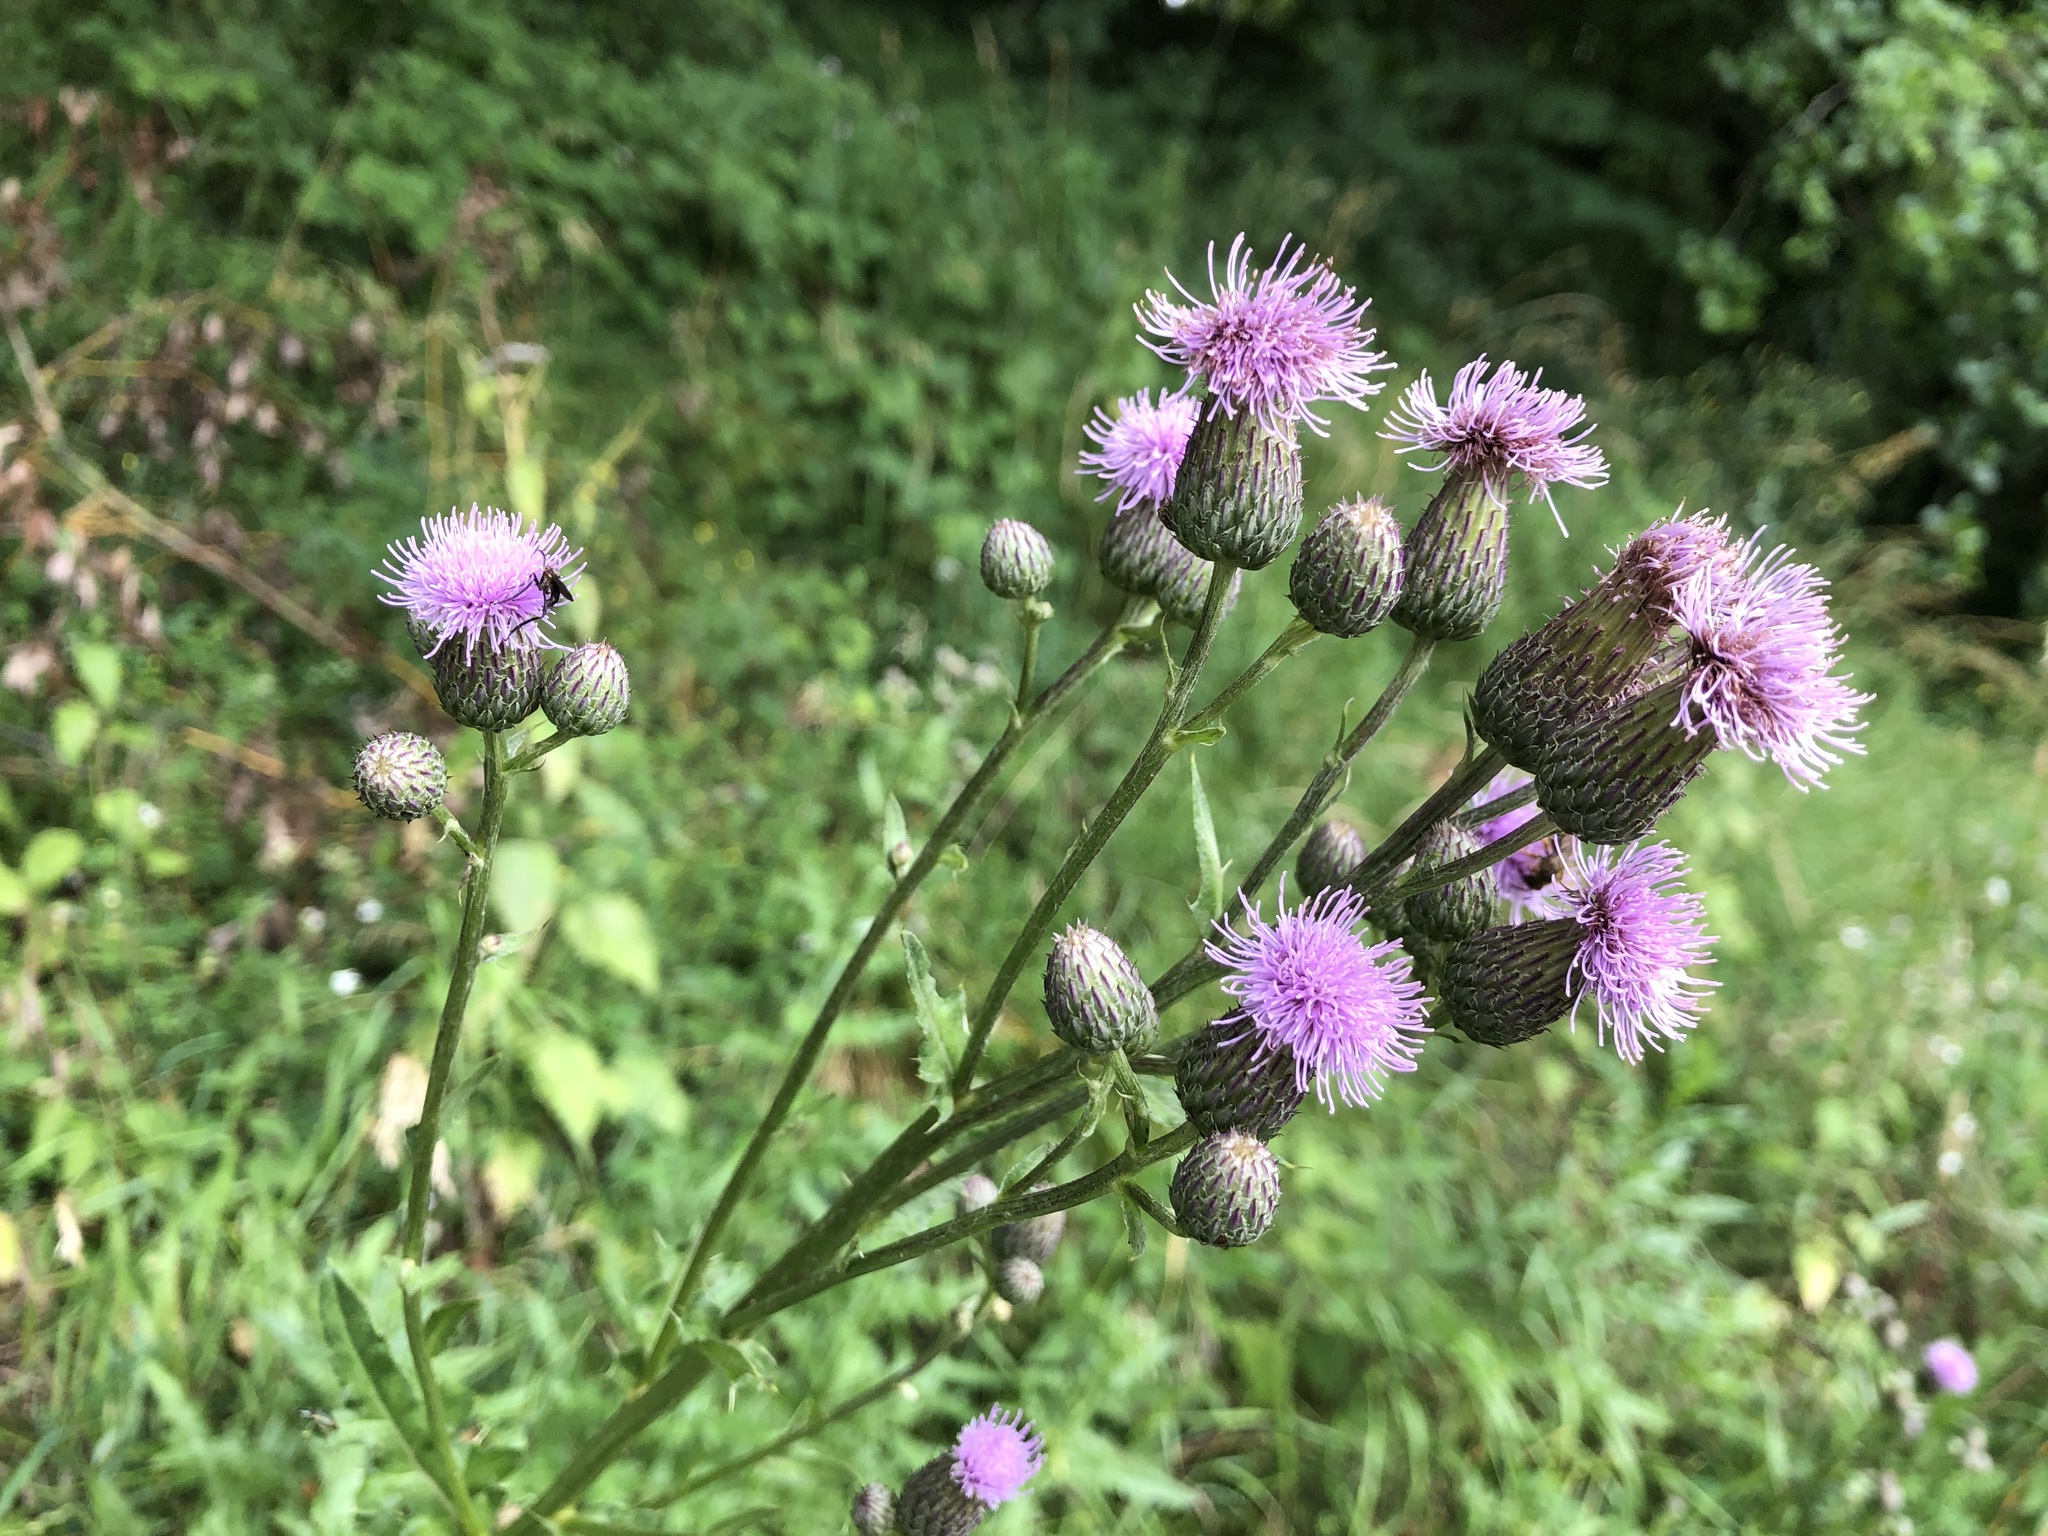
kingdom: Plantae
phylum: Tracheophyta
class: Magnoliopsida
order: Asterales
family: Asteraceae
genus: Cirsium
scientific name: Cirsium arvense
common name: Creeping thistle
